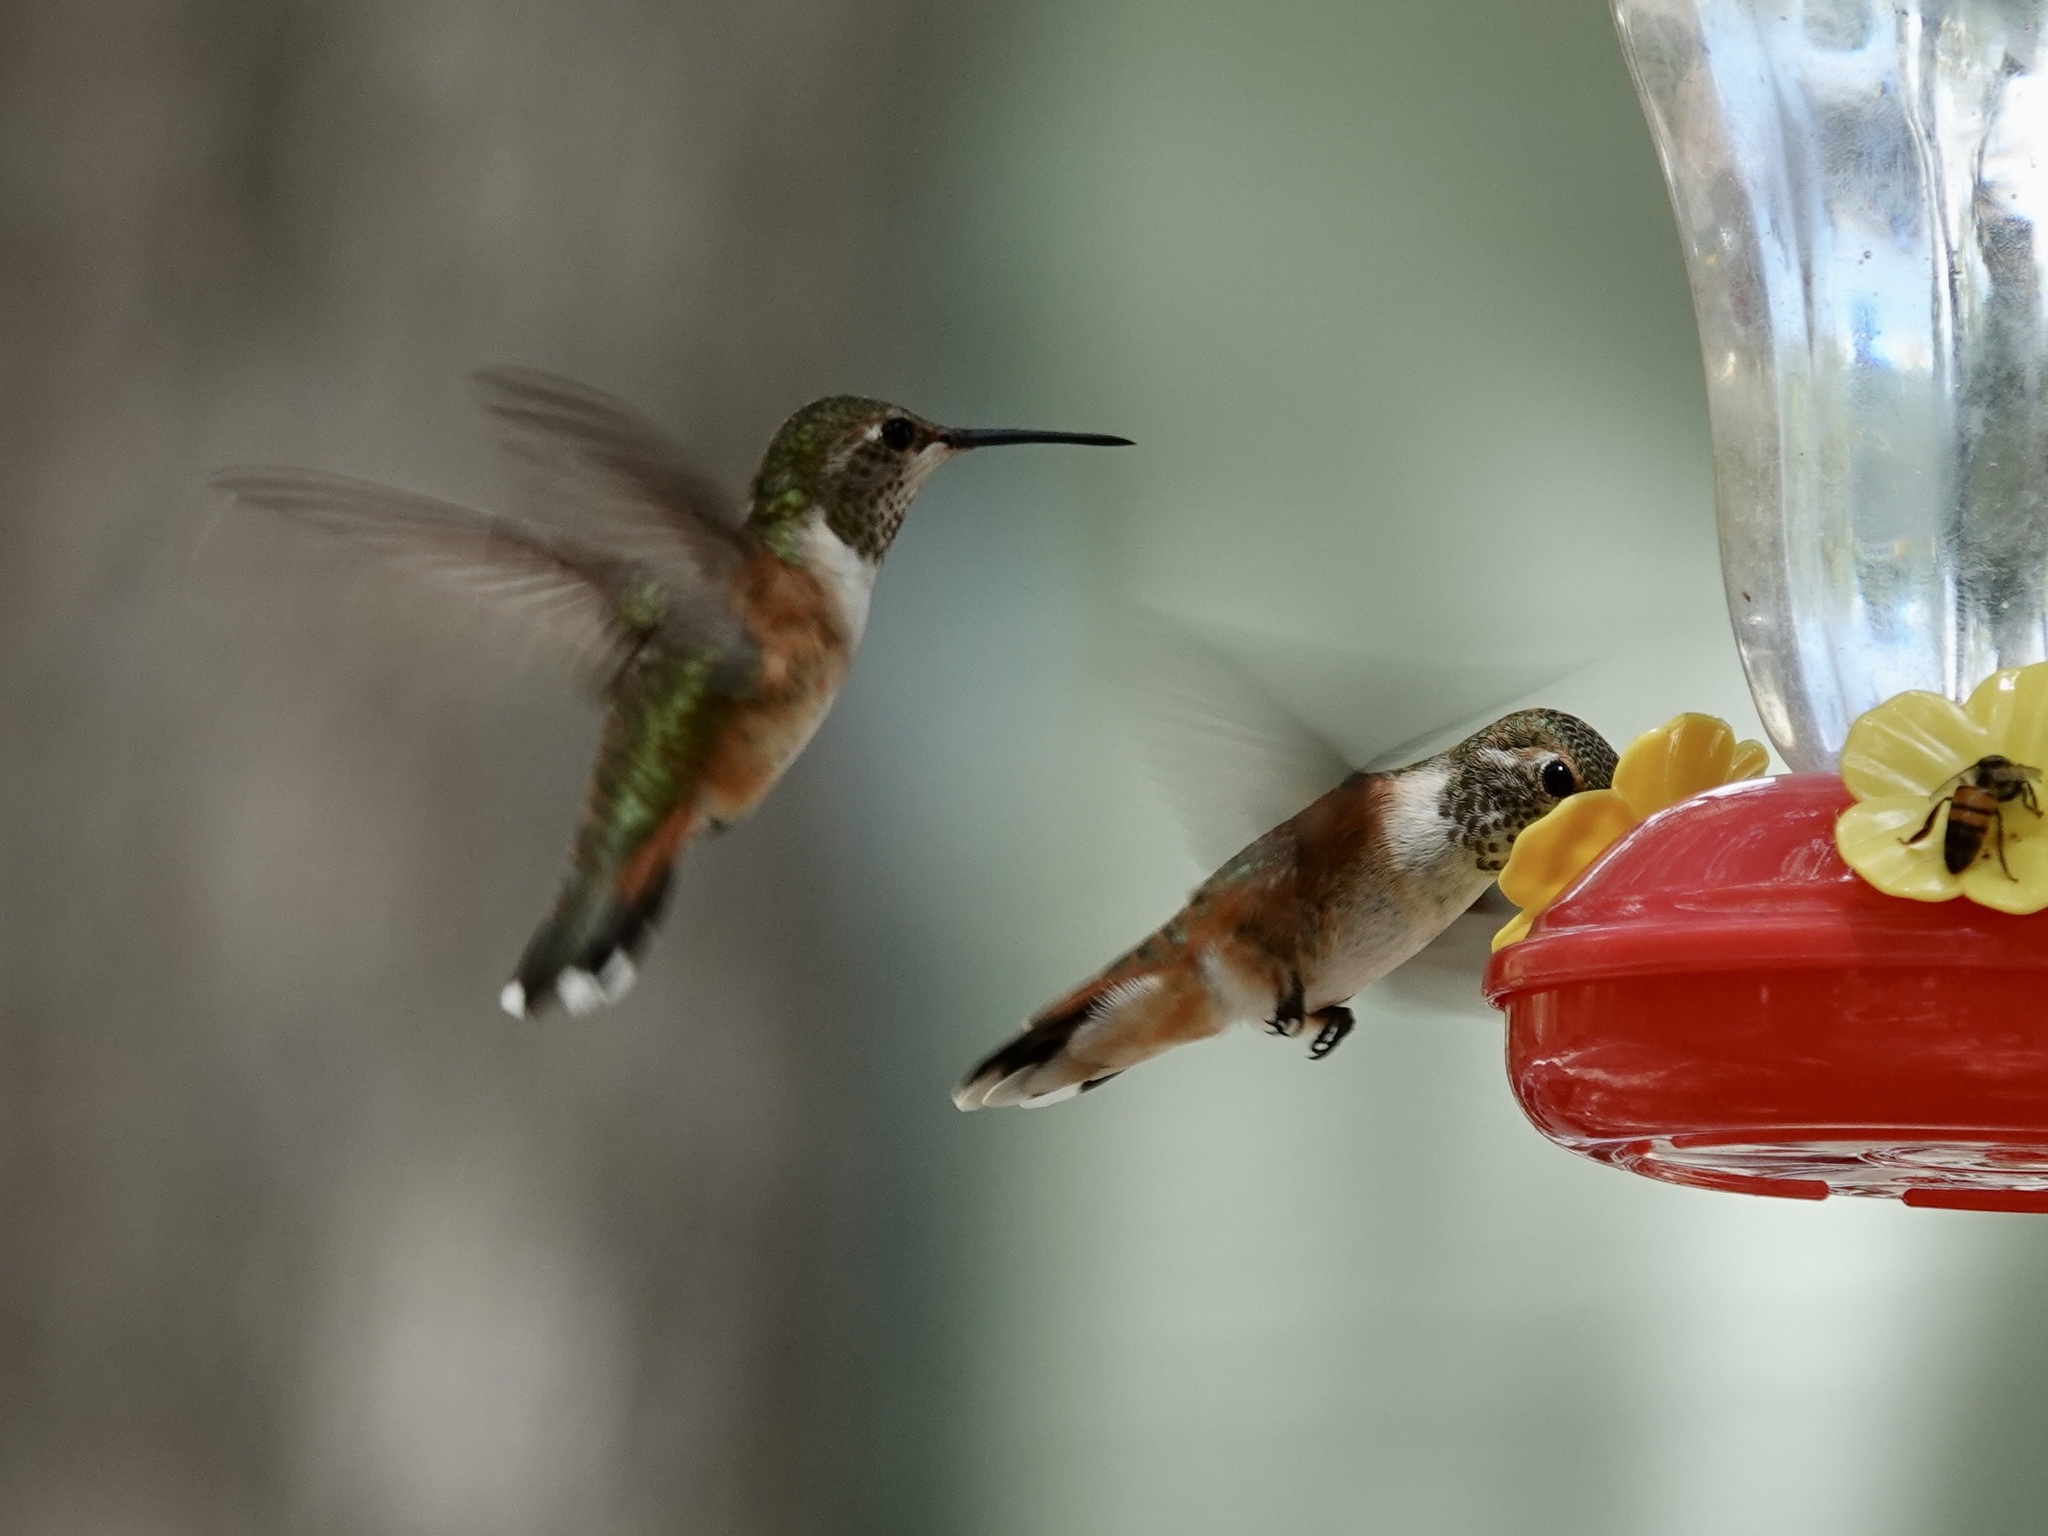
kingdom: Animalia
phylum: Chordata
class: Aves
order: Apodiformes
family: Trochilidae
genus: Selasphorus
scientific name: Selasphorus platycercus
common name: Broad-tailed hummingbird
